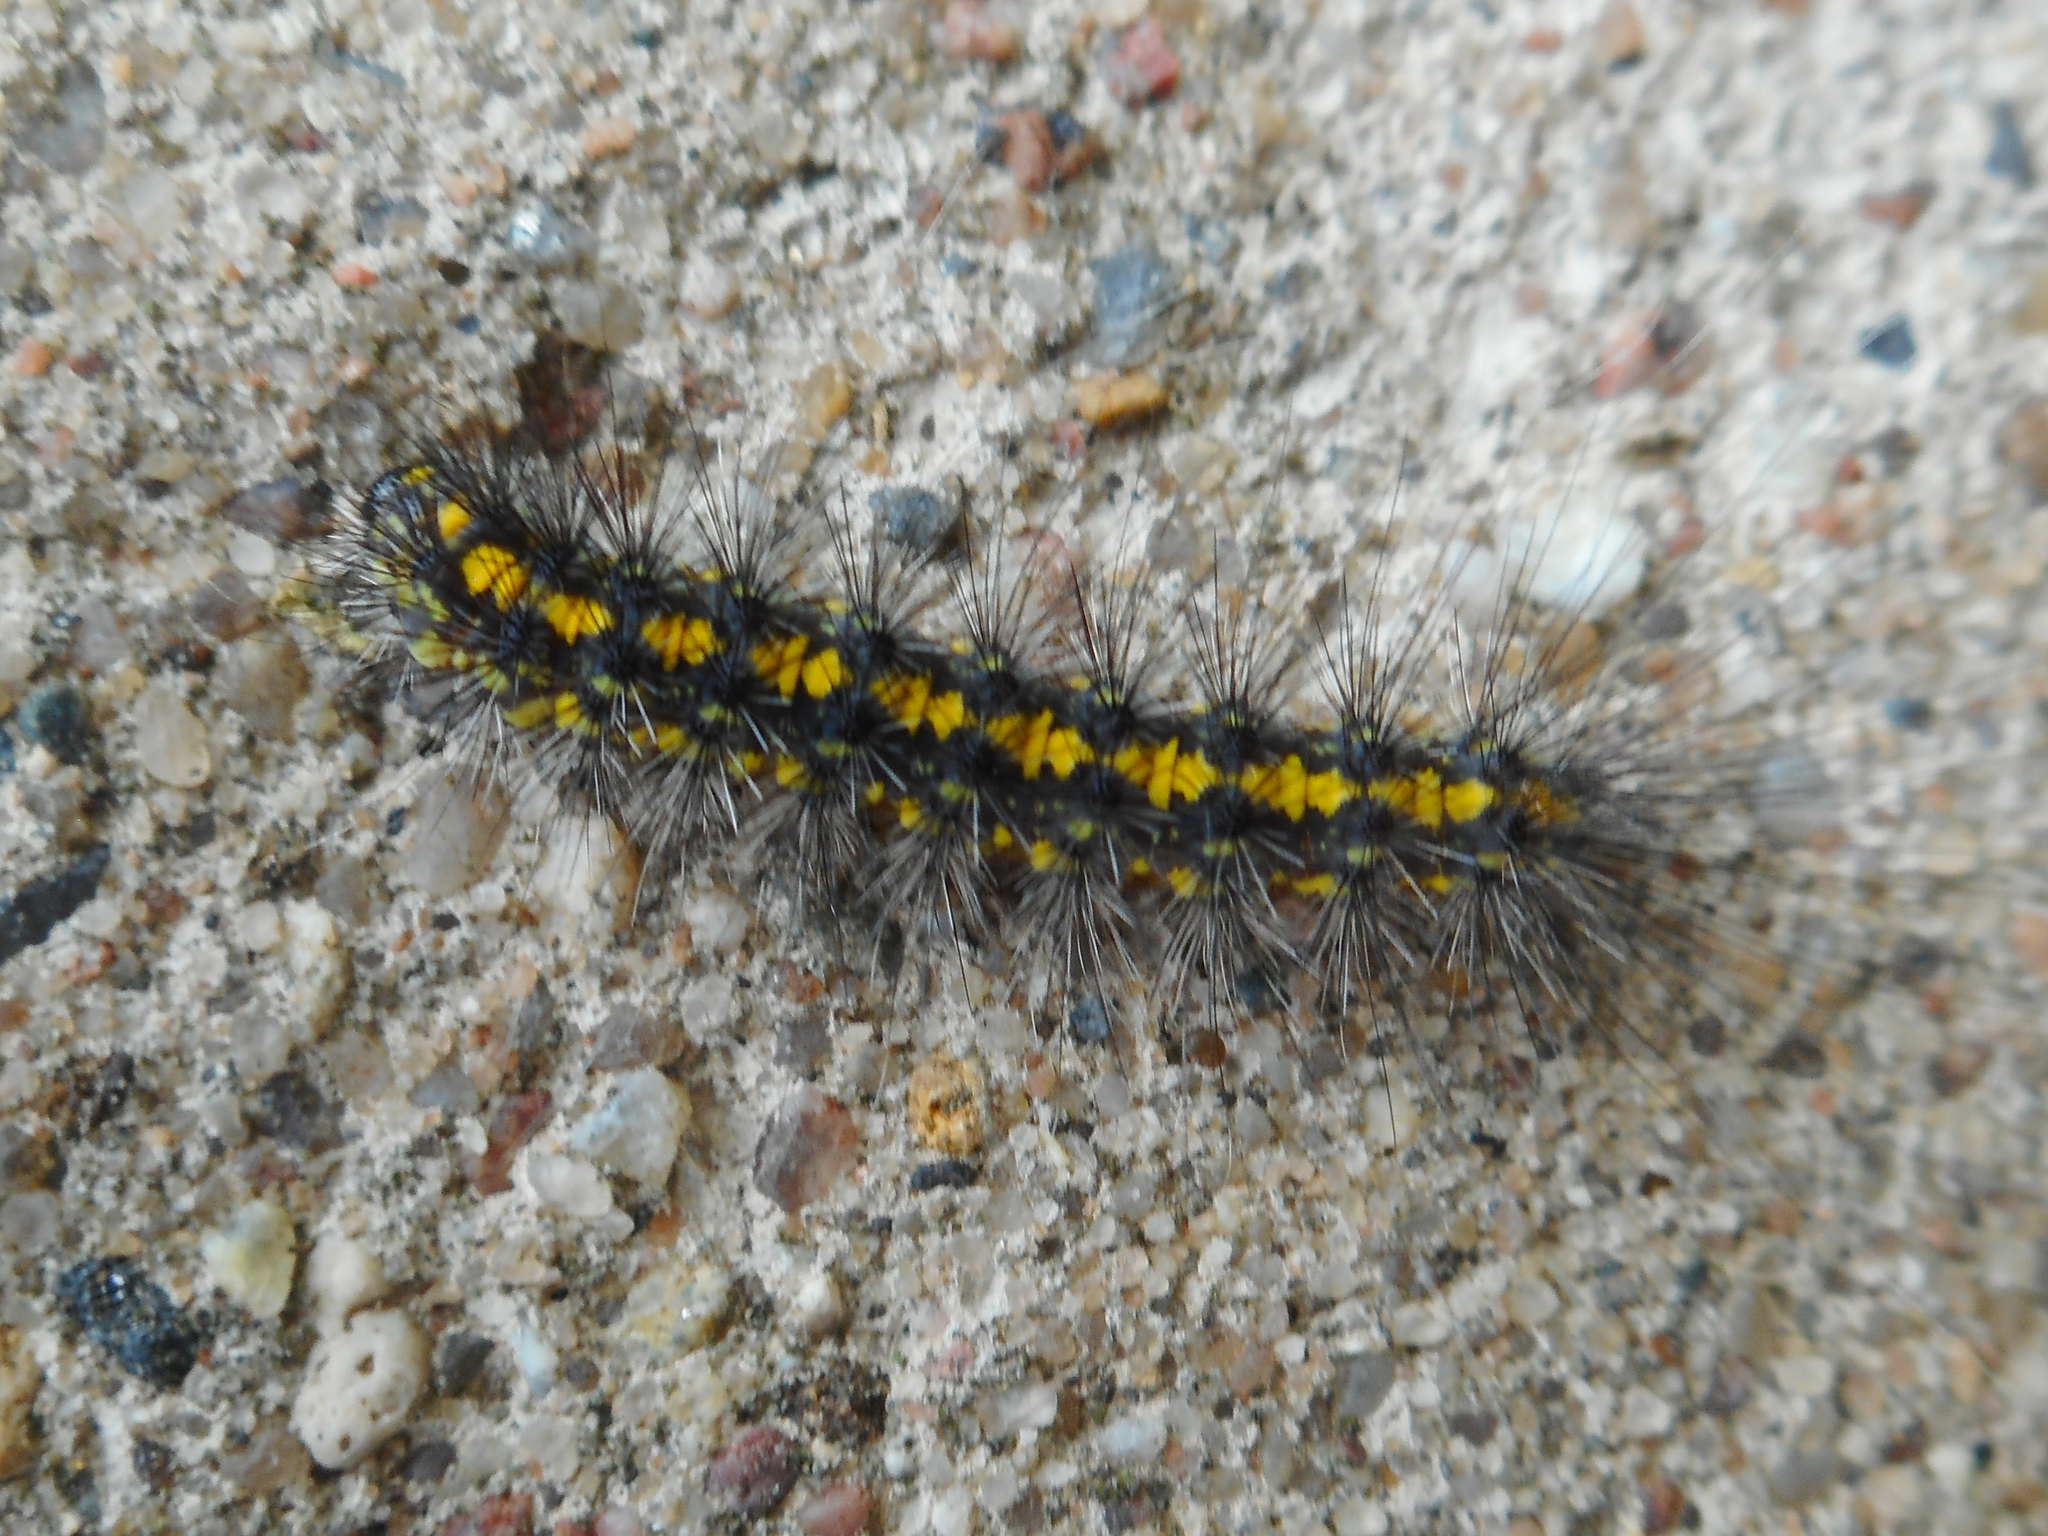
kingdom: Animalia
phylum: Arthropoda
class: Insecta
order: Lepidoptera
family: Erebidae
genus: Setina
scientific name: Setina irrorella
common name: Dew moth
